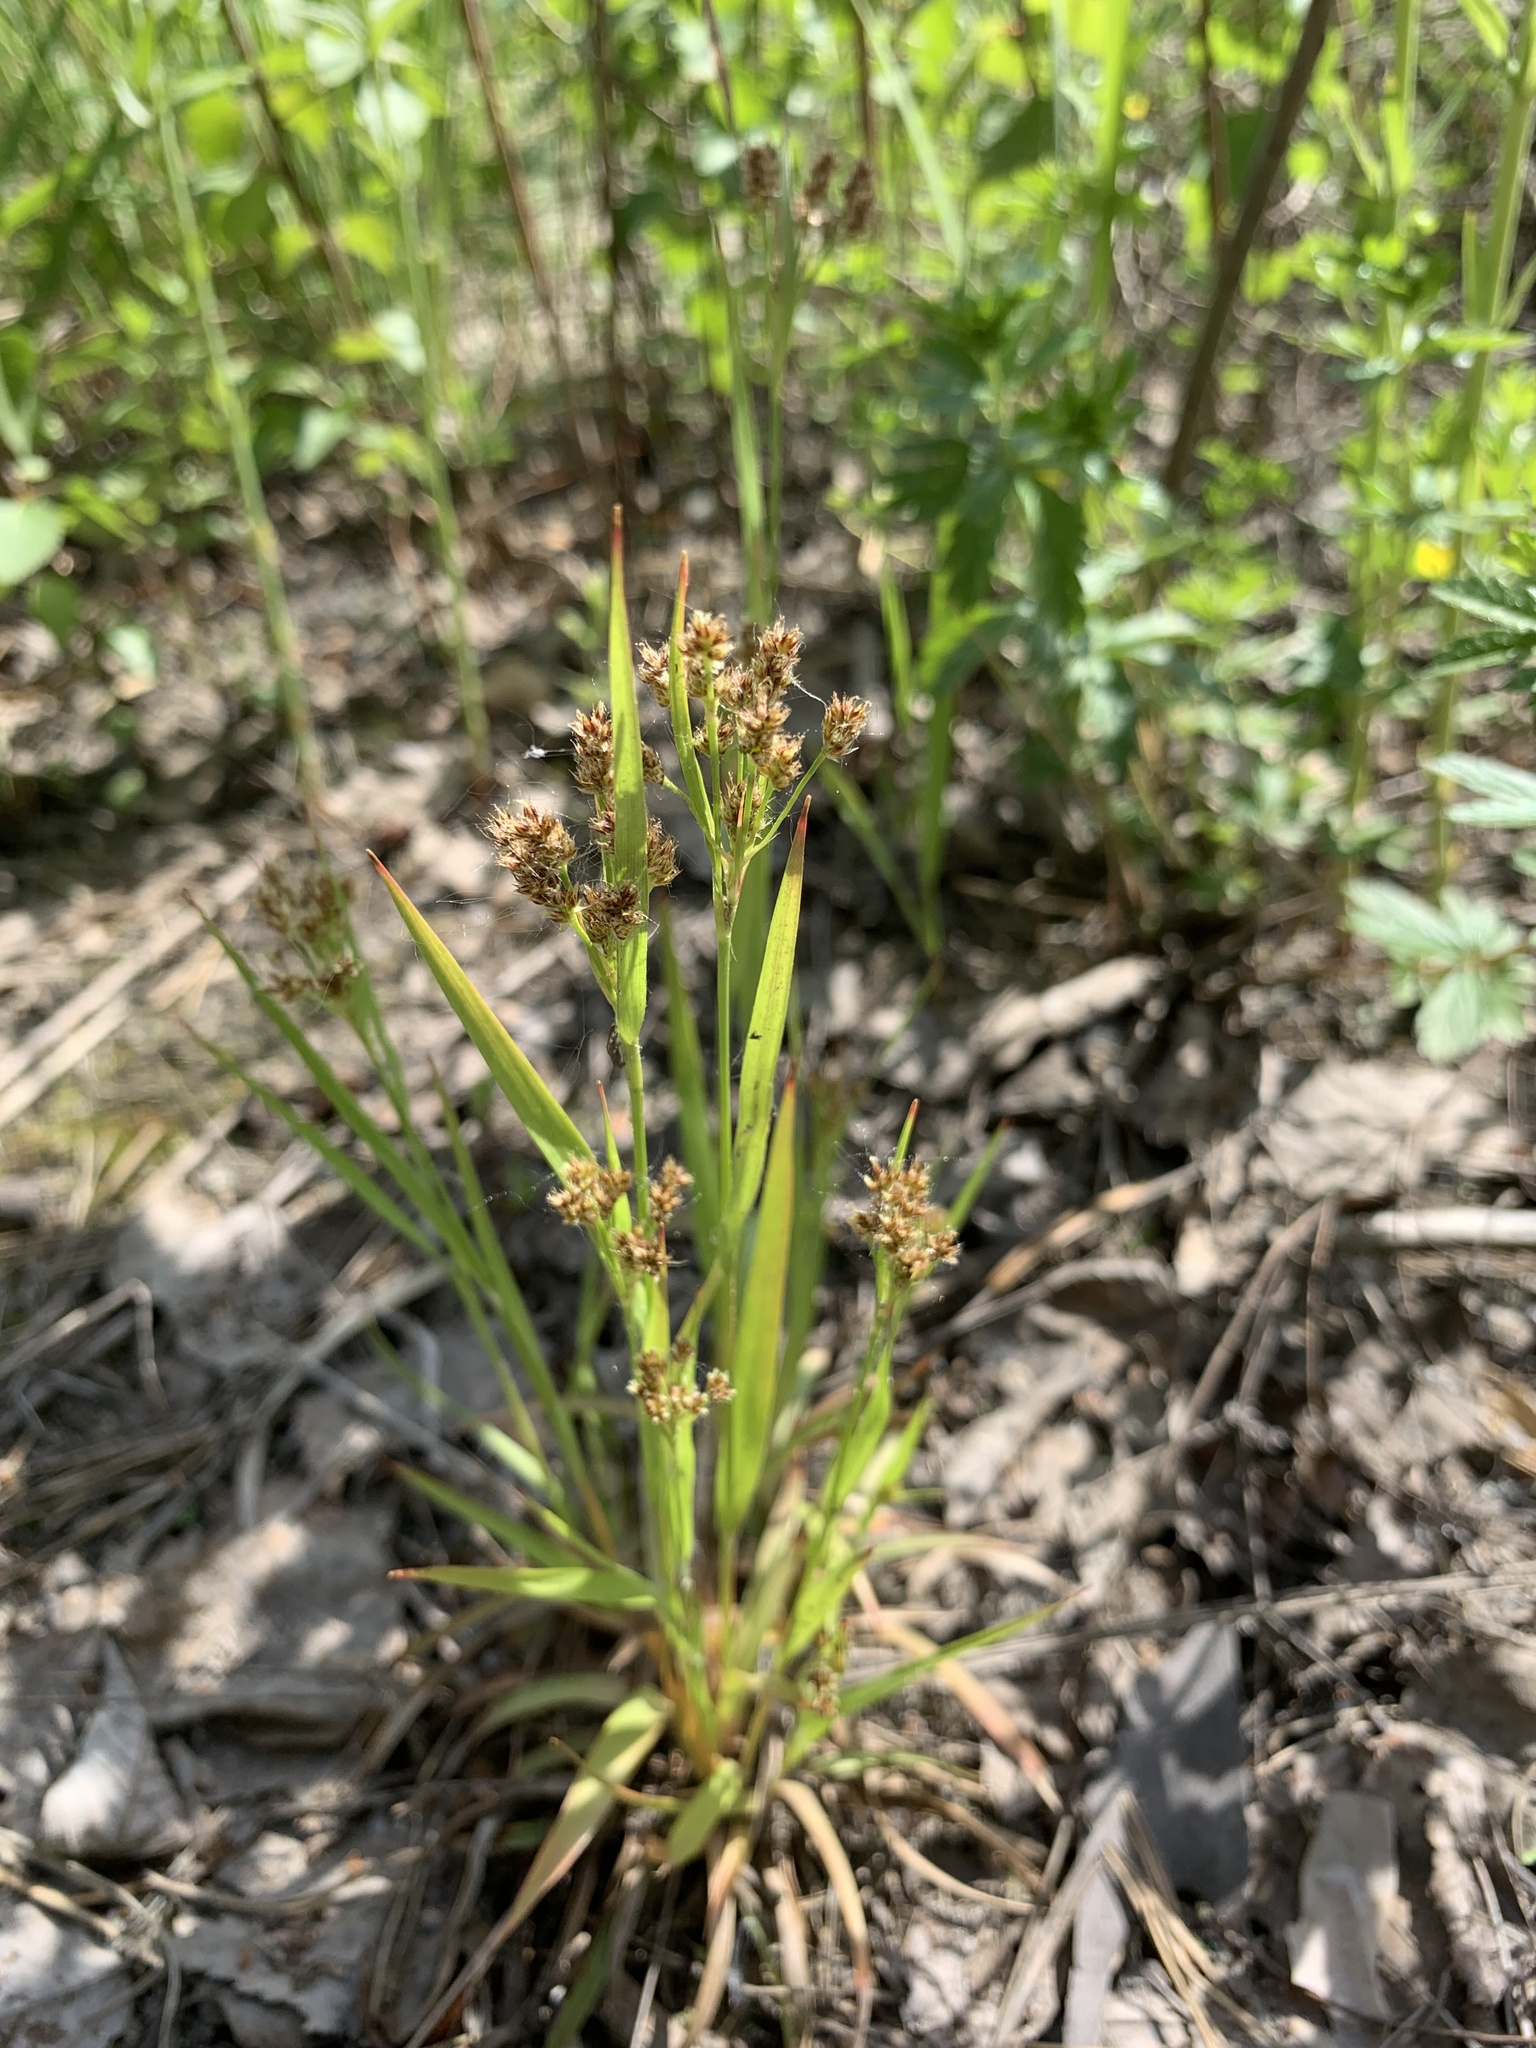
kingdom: Plantae
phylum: Tracheophyta
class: Liliopsida
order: Poales
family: Juncaceae
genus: Luzula
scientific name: Luzula pallescens
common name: Fen wood-rush
